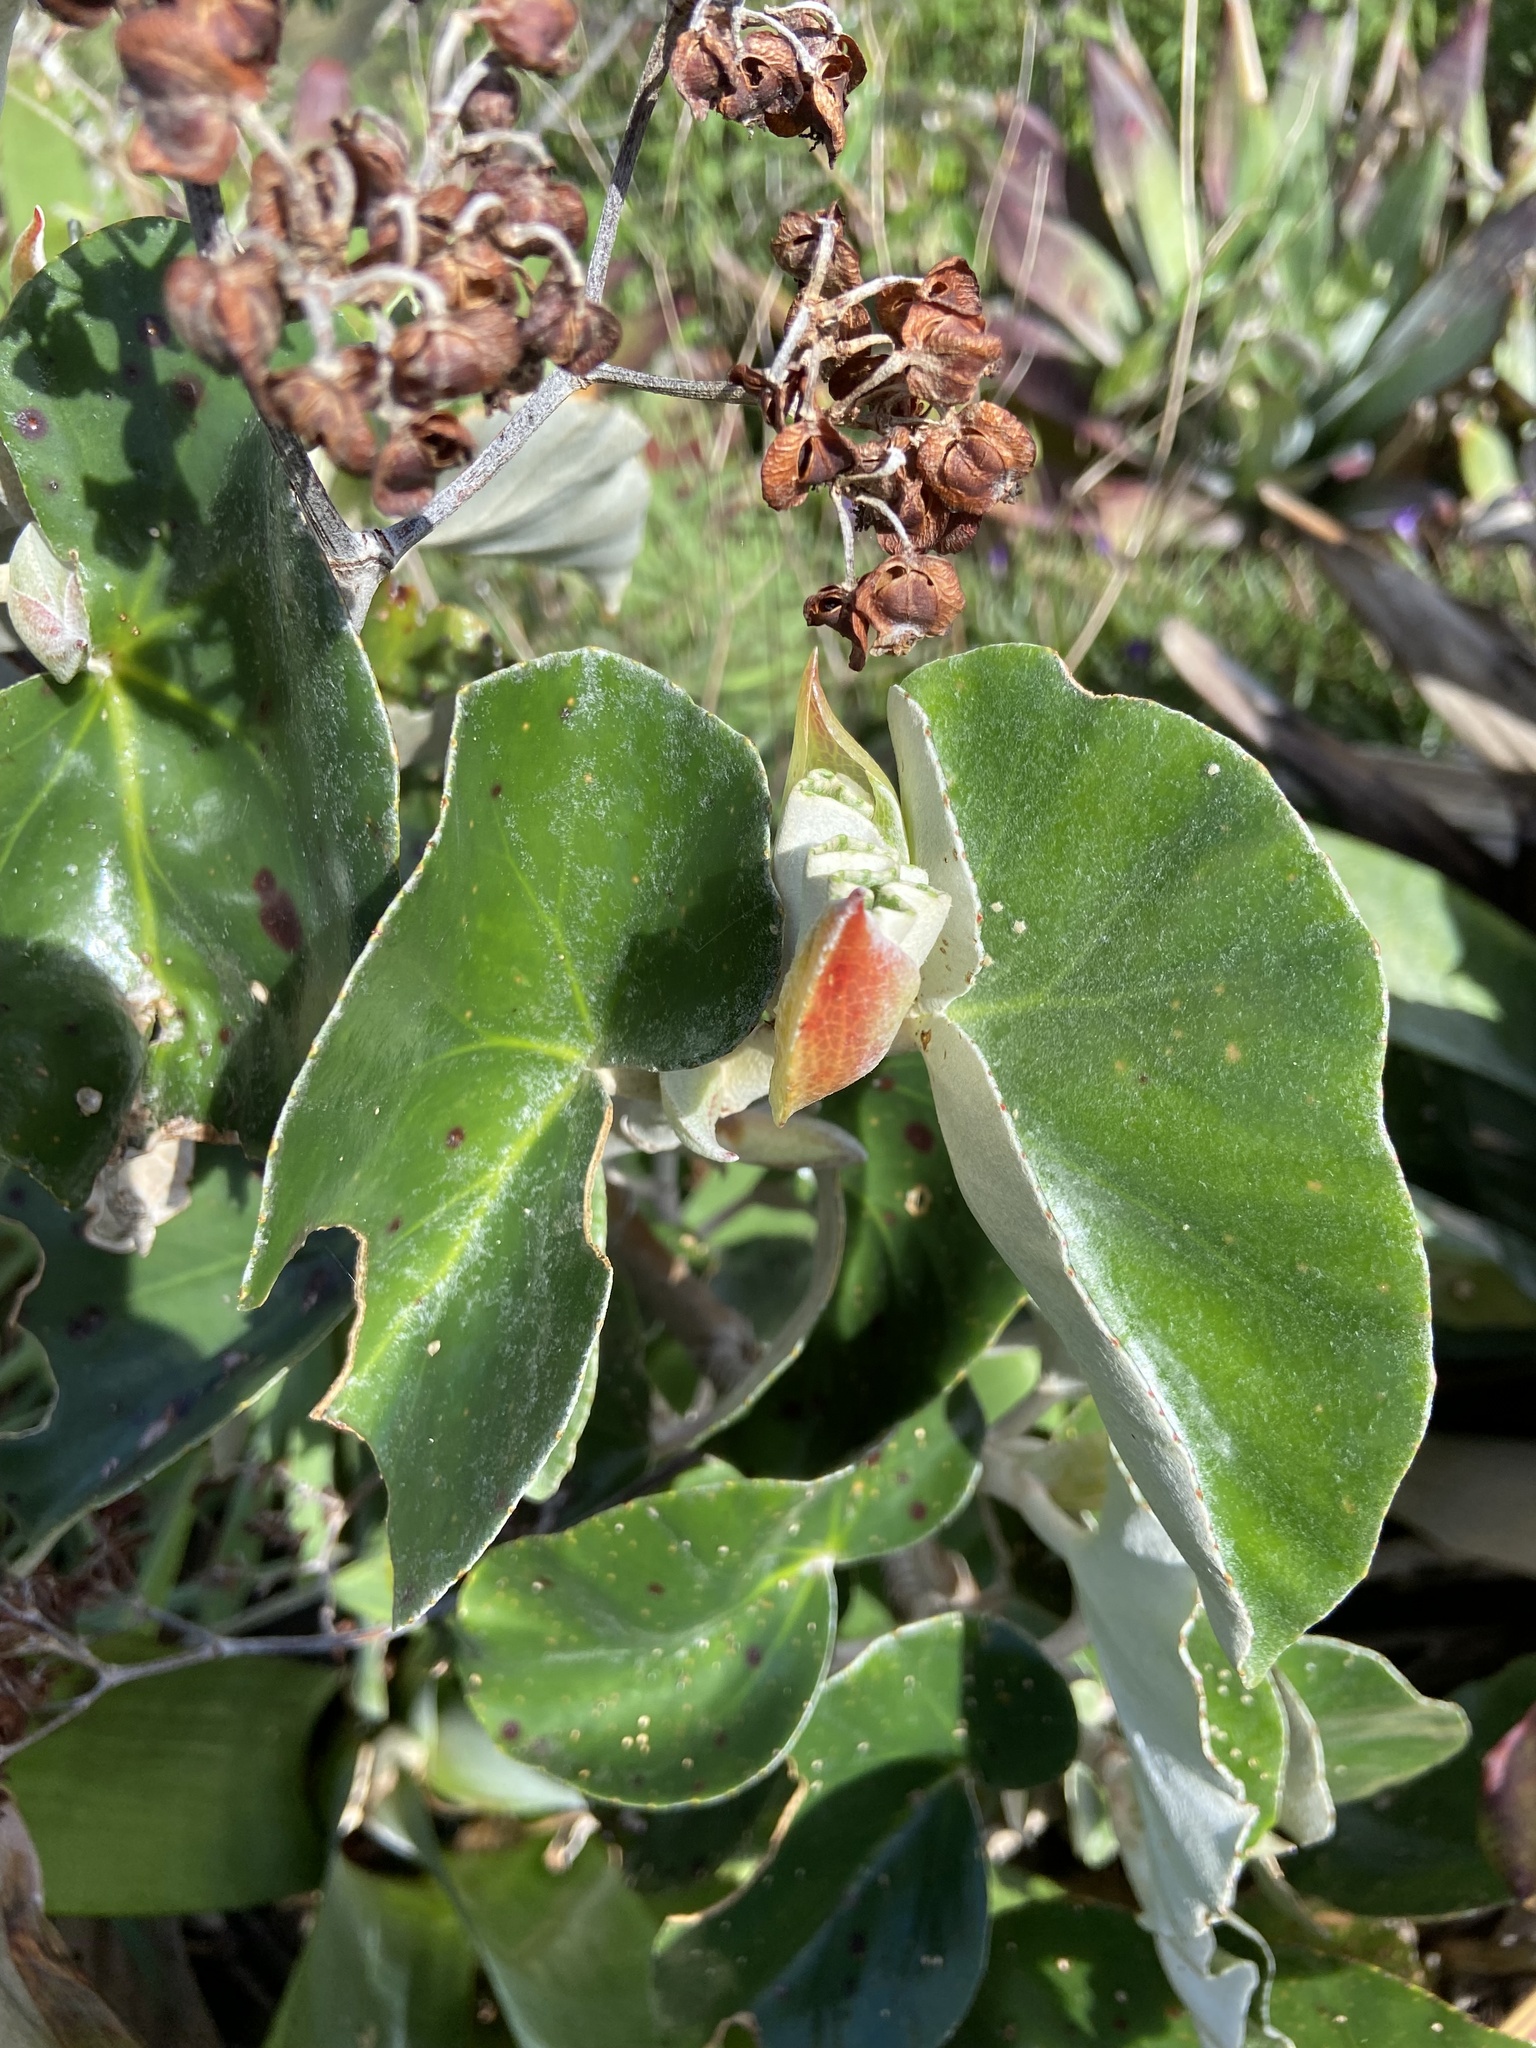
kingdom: Plantae
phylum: Tracheophyta
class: Magnoliopsida
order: Cucurbitales
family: Begoniaceae
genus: Begonia
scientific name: Begonia albidula
